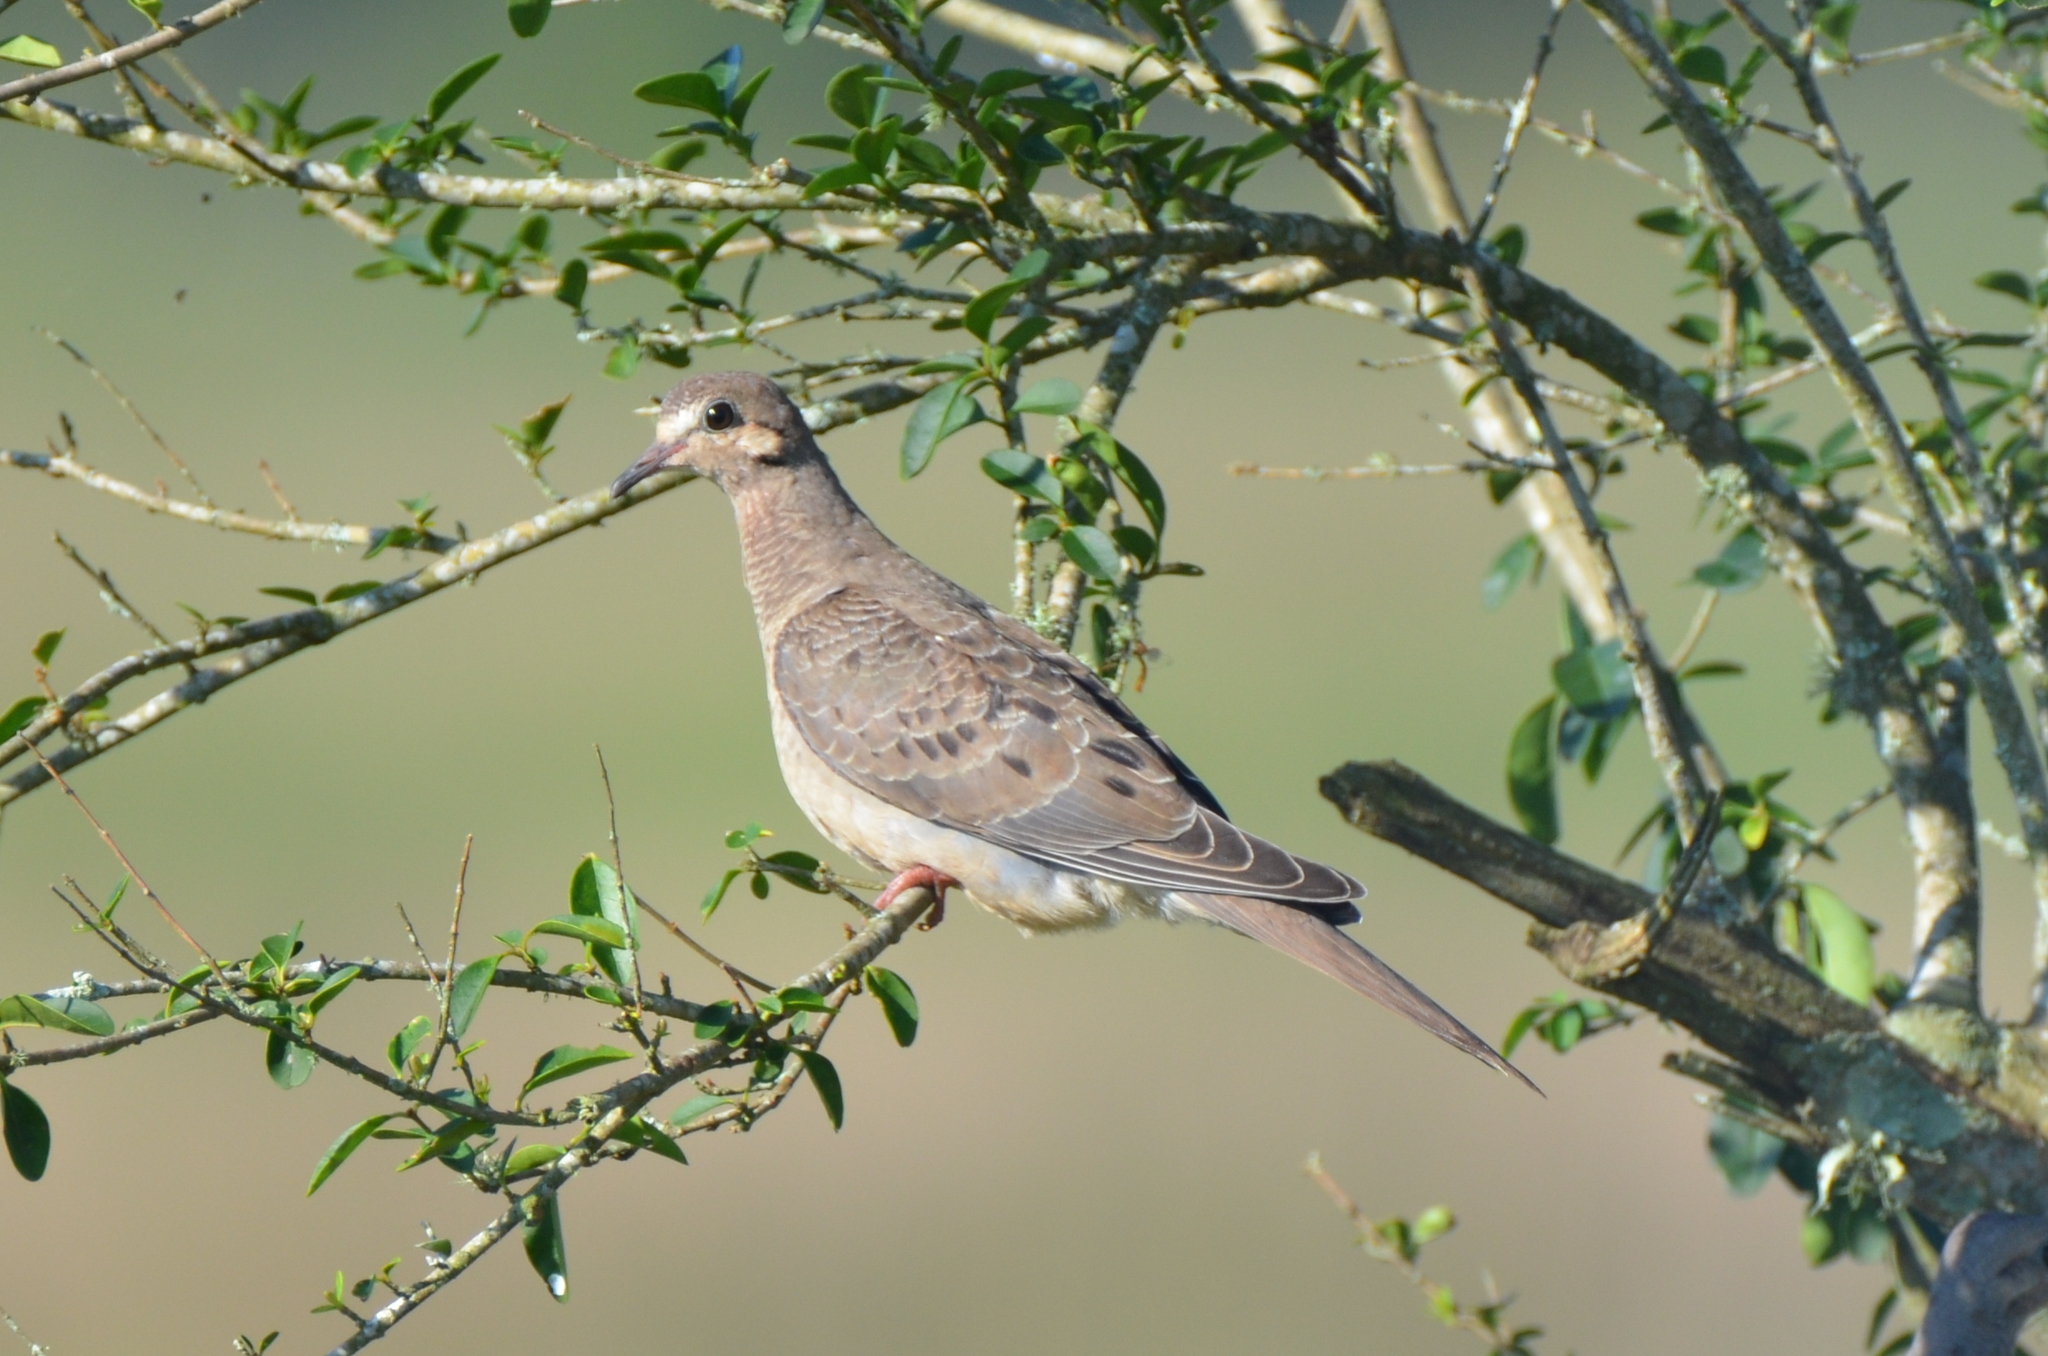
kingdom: Animalia
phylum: Chordata
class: Aves
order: Columbiformes
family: Columbidae
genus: Zenaida
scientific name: Zenaida macroura
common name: Mourning dove
